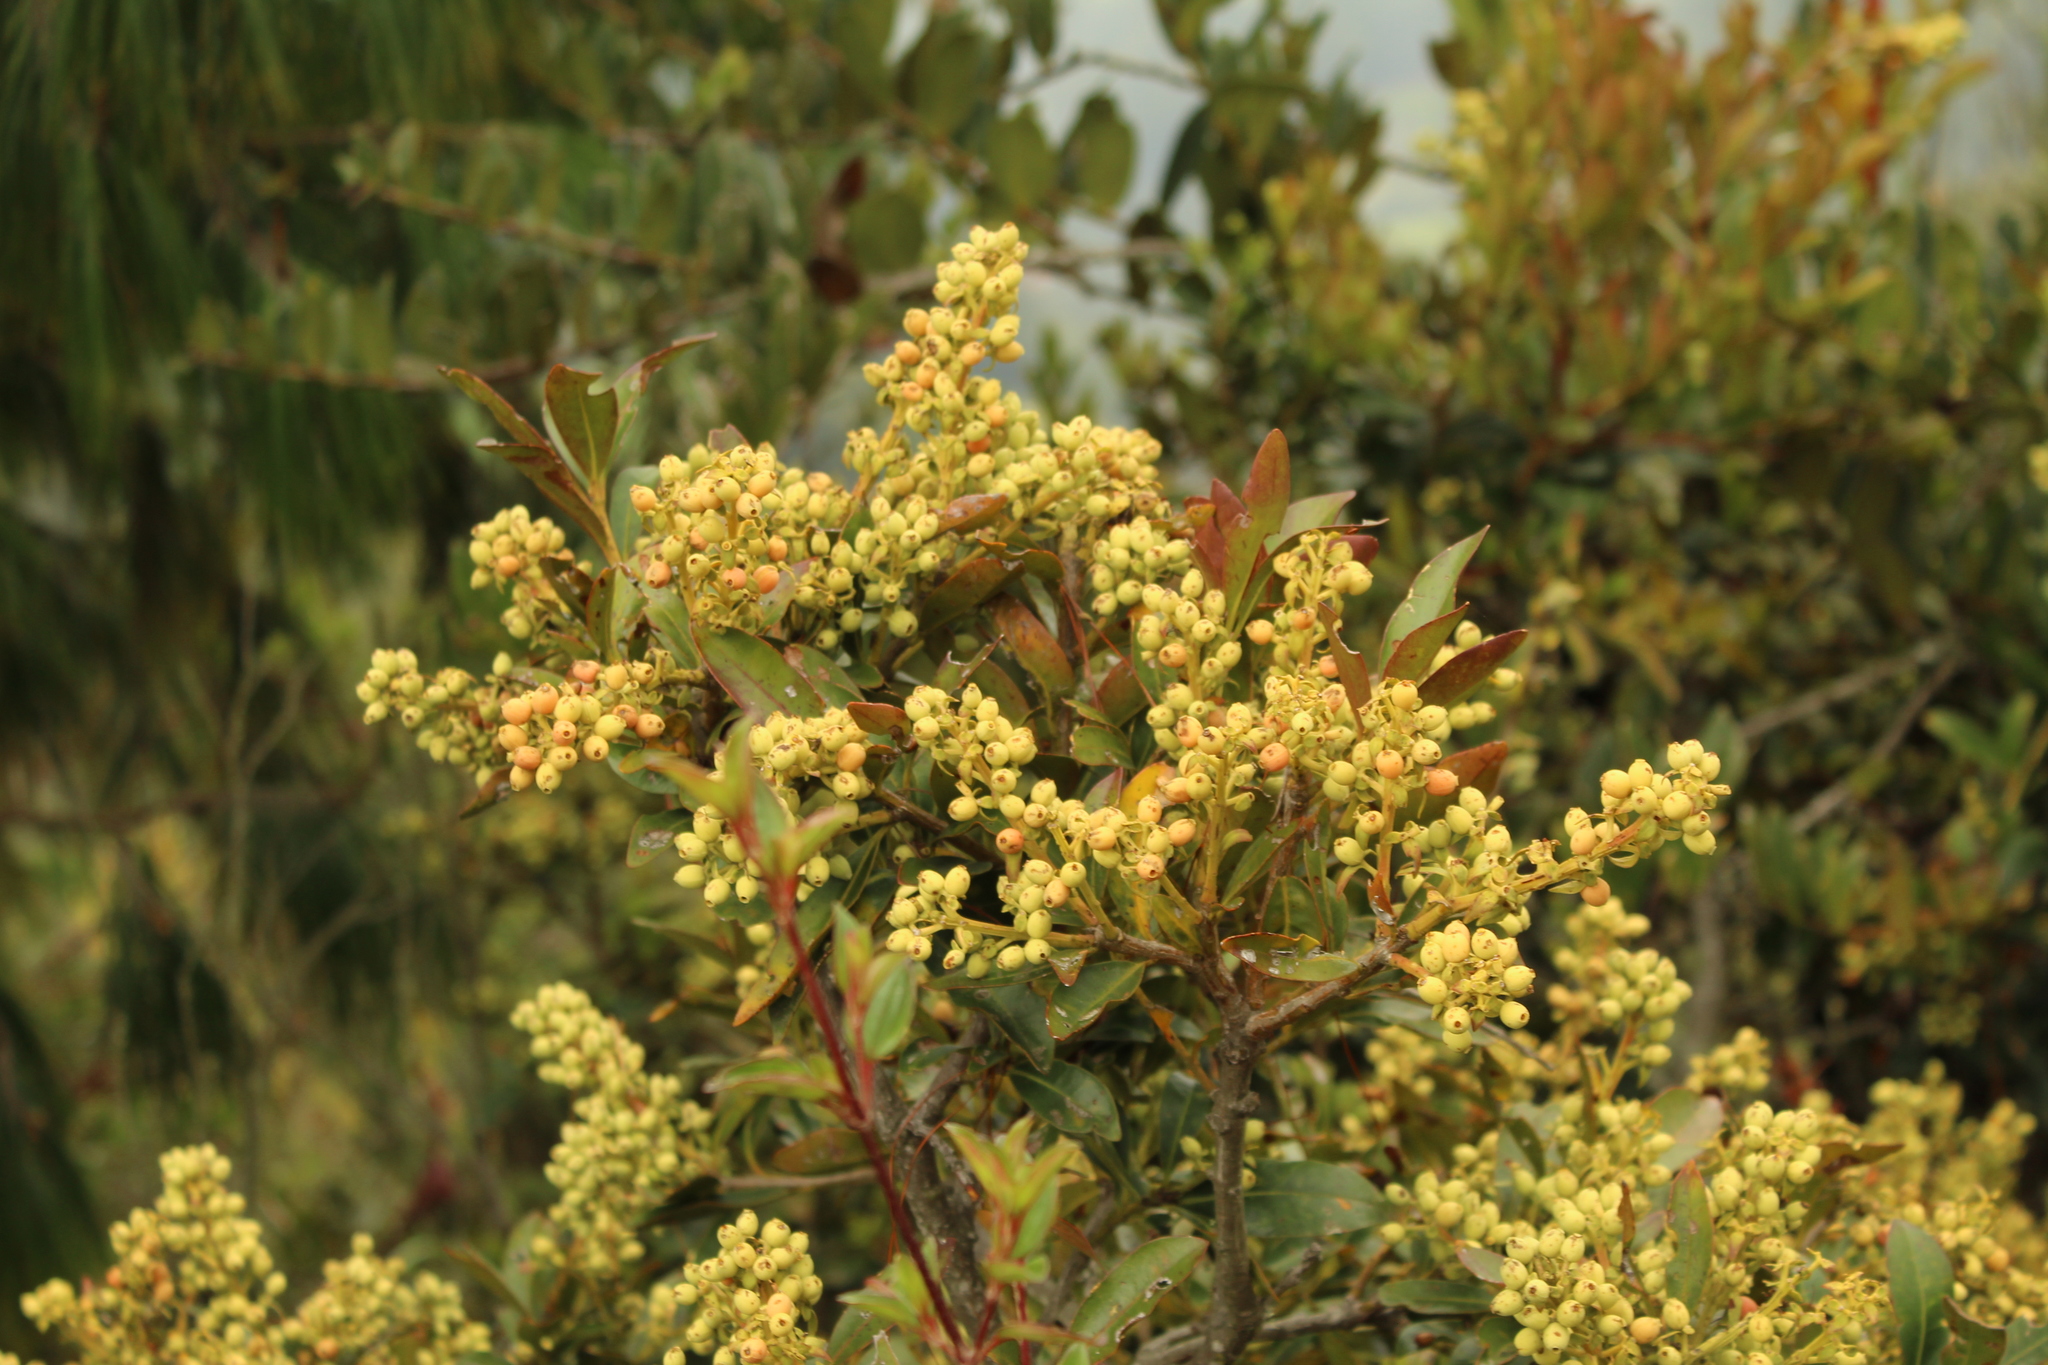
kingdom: Plantae
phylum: Tracheophyta
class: Magnoliopsida
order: Santalales
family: Loranthaceae
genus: Gaiadendron
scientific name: Gaiadendron punctatum
